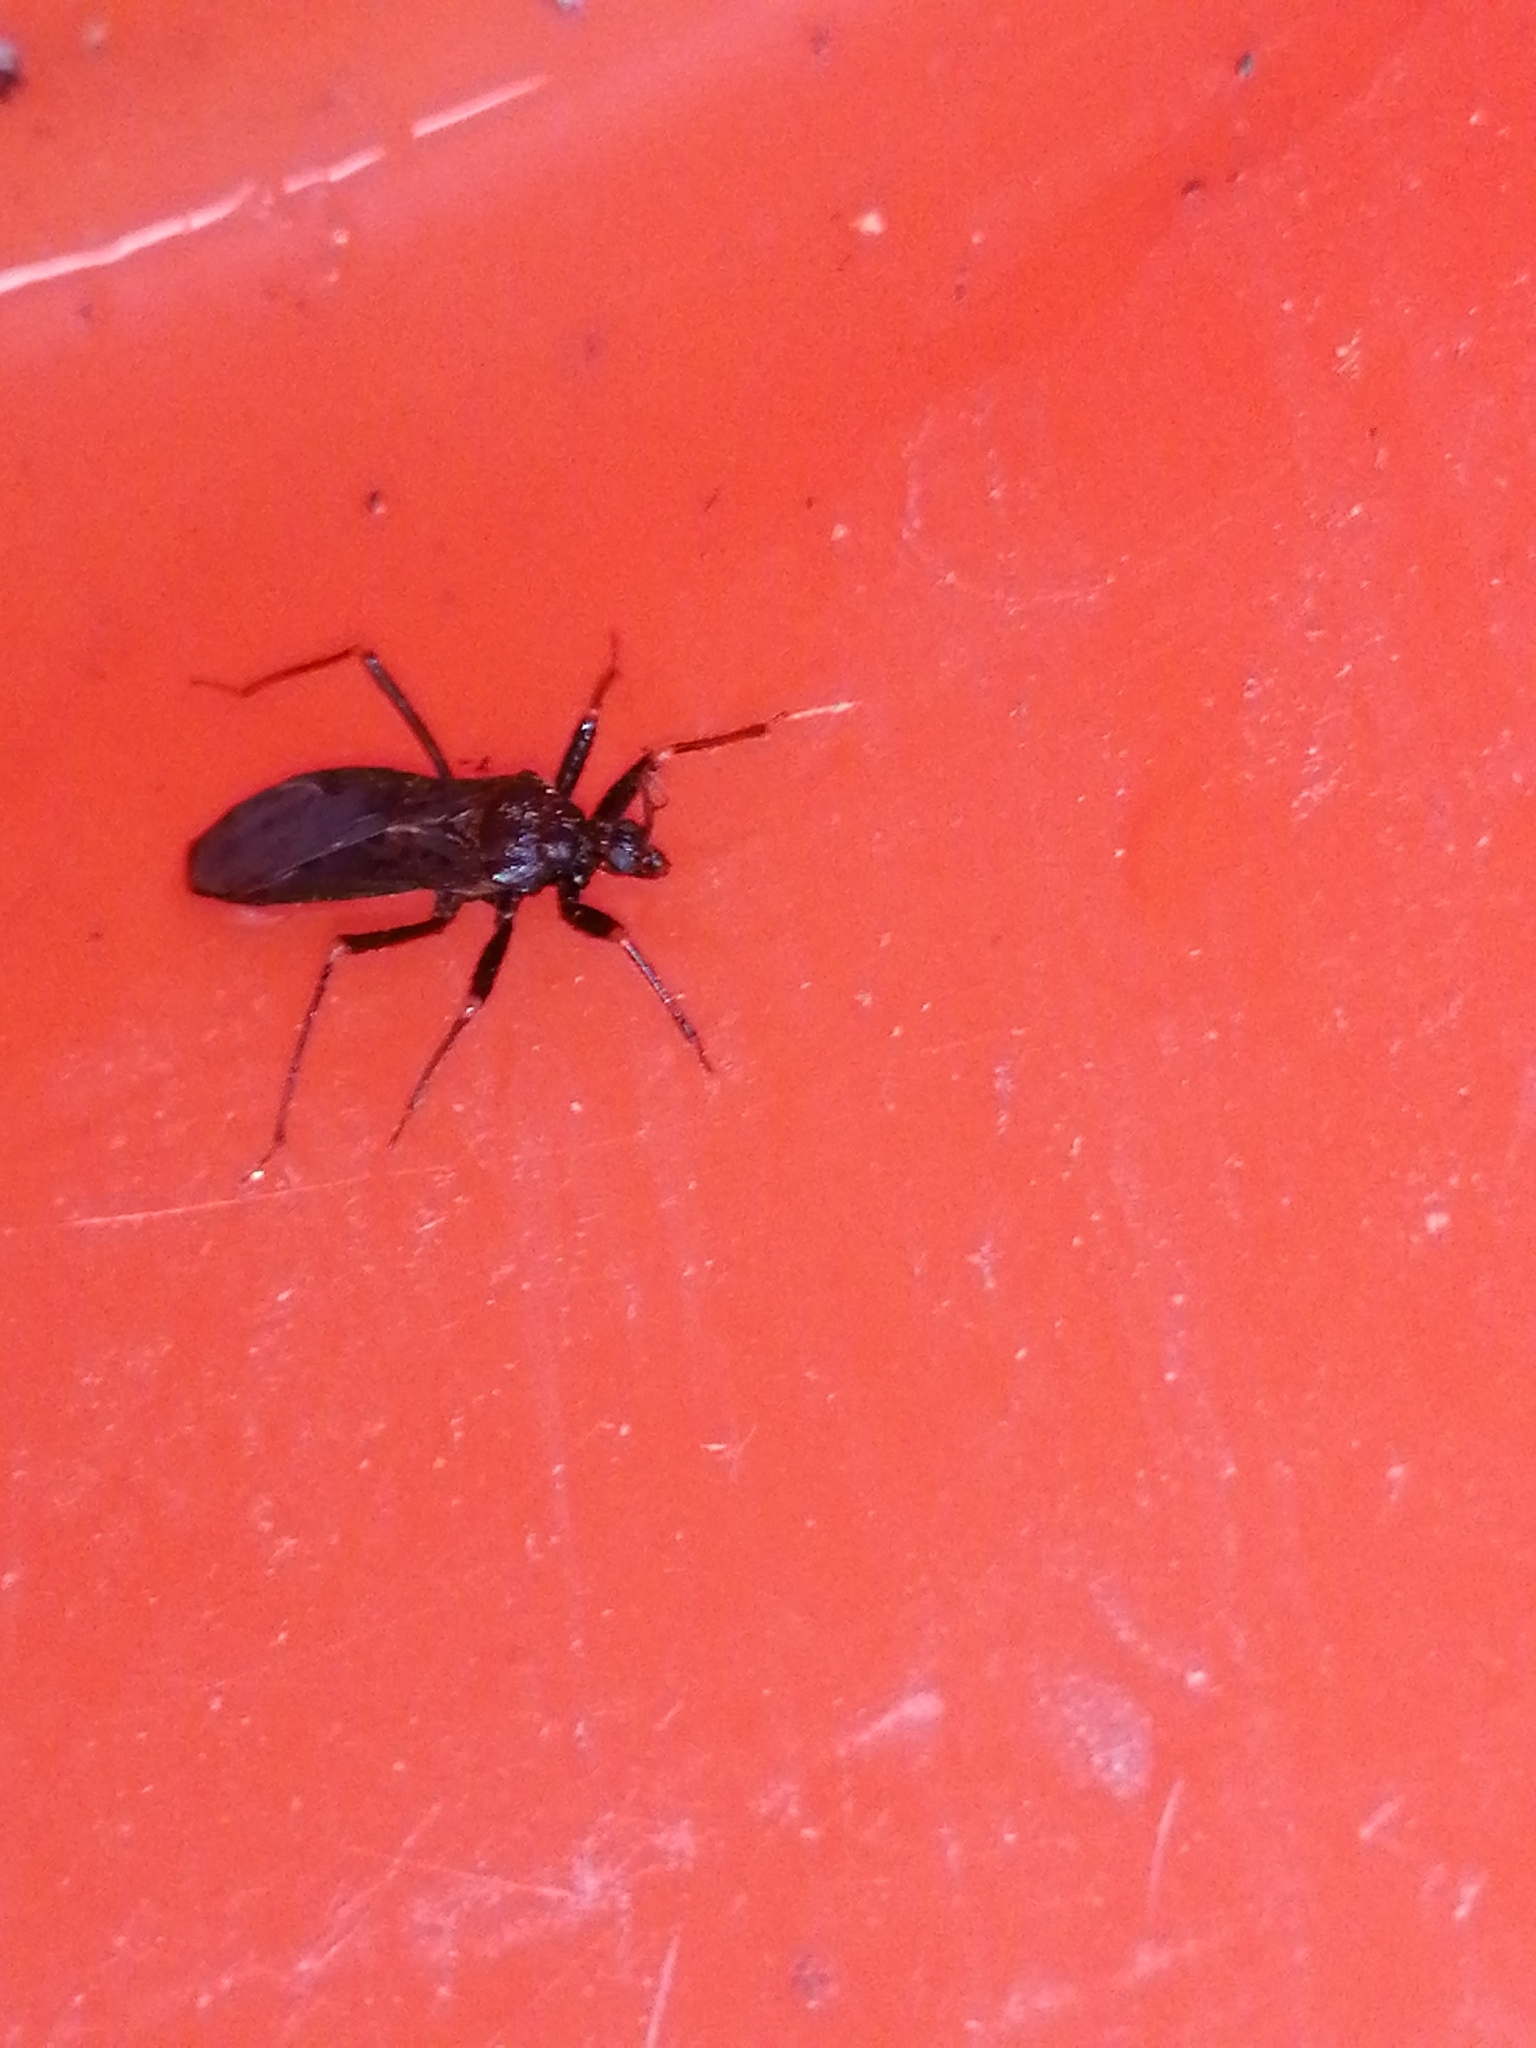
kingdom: Animalia
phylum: Arthropoda
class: Insecta
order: Hemiptera
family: Reduviidae
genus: Reduvius
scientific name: Reduvius personatus
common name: Masked hunter
